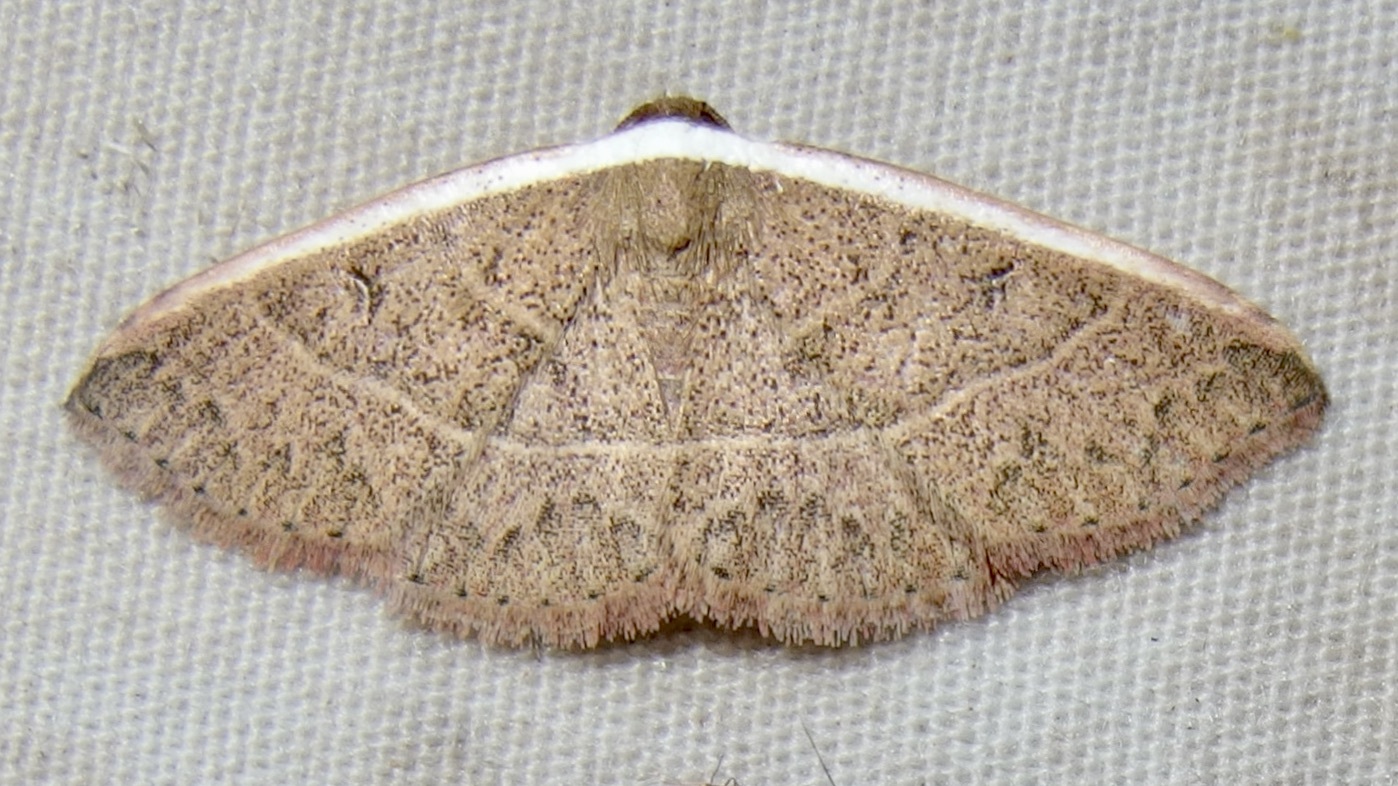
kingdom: Animalia
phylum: Arthropoda
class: Insecta
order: Lepidoptera
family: Noctuidae
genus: Oruza
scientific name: Oruza albocostata
